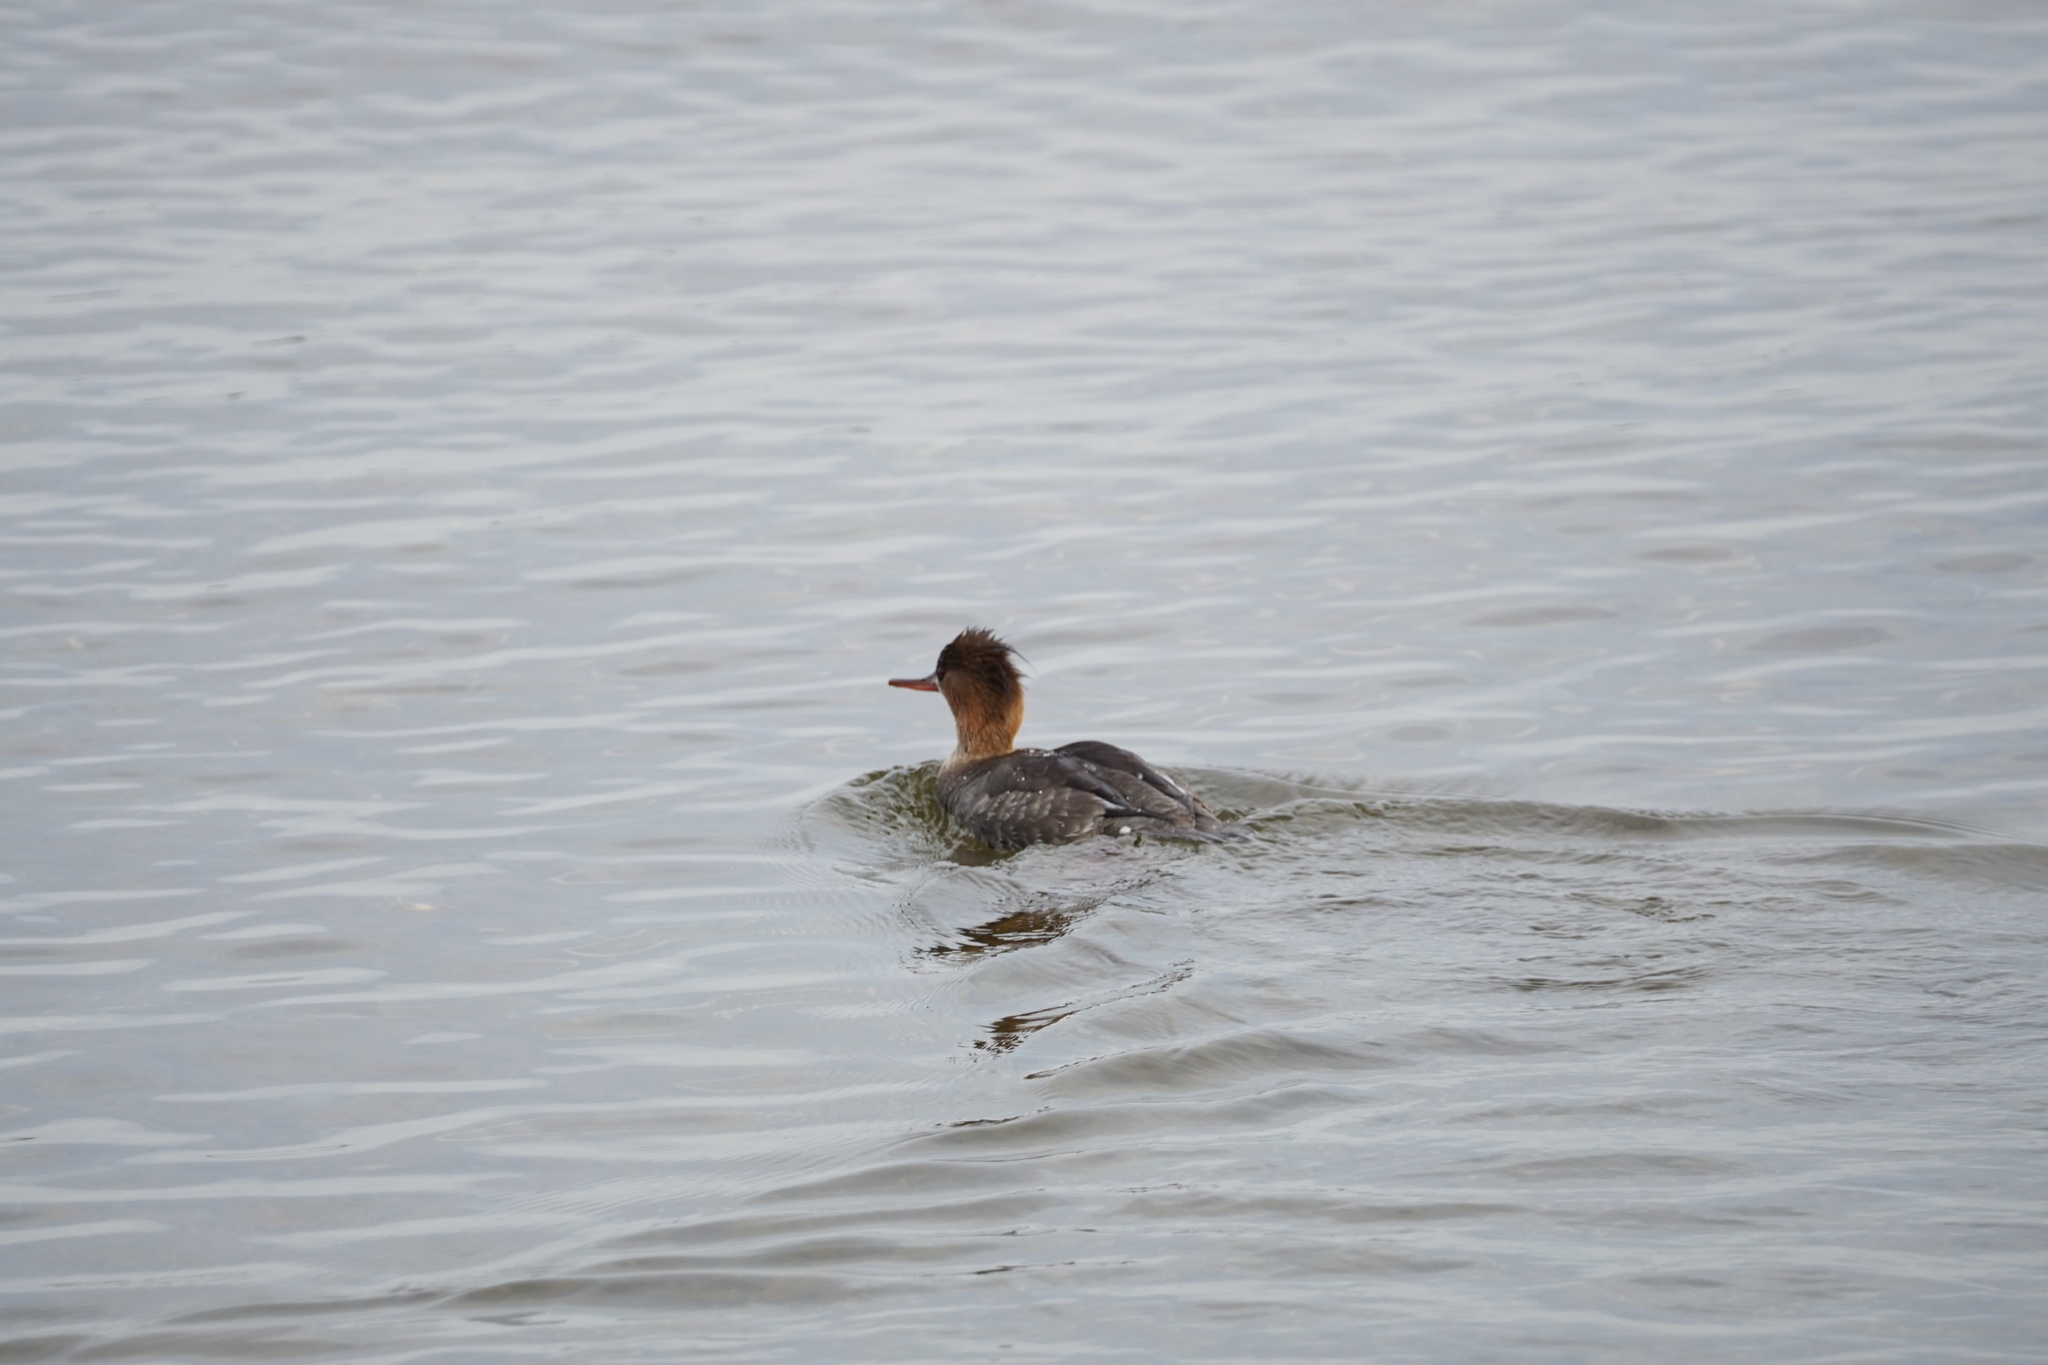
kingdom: Animalia
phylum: Chordata
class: Aves
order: Anseriformes
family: Anatidae
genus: Mergus
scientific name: Mergus serrator
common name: Red-breasted merganser
